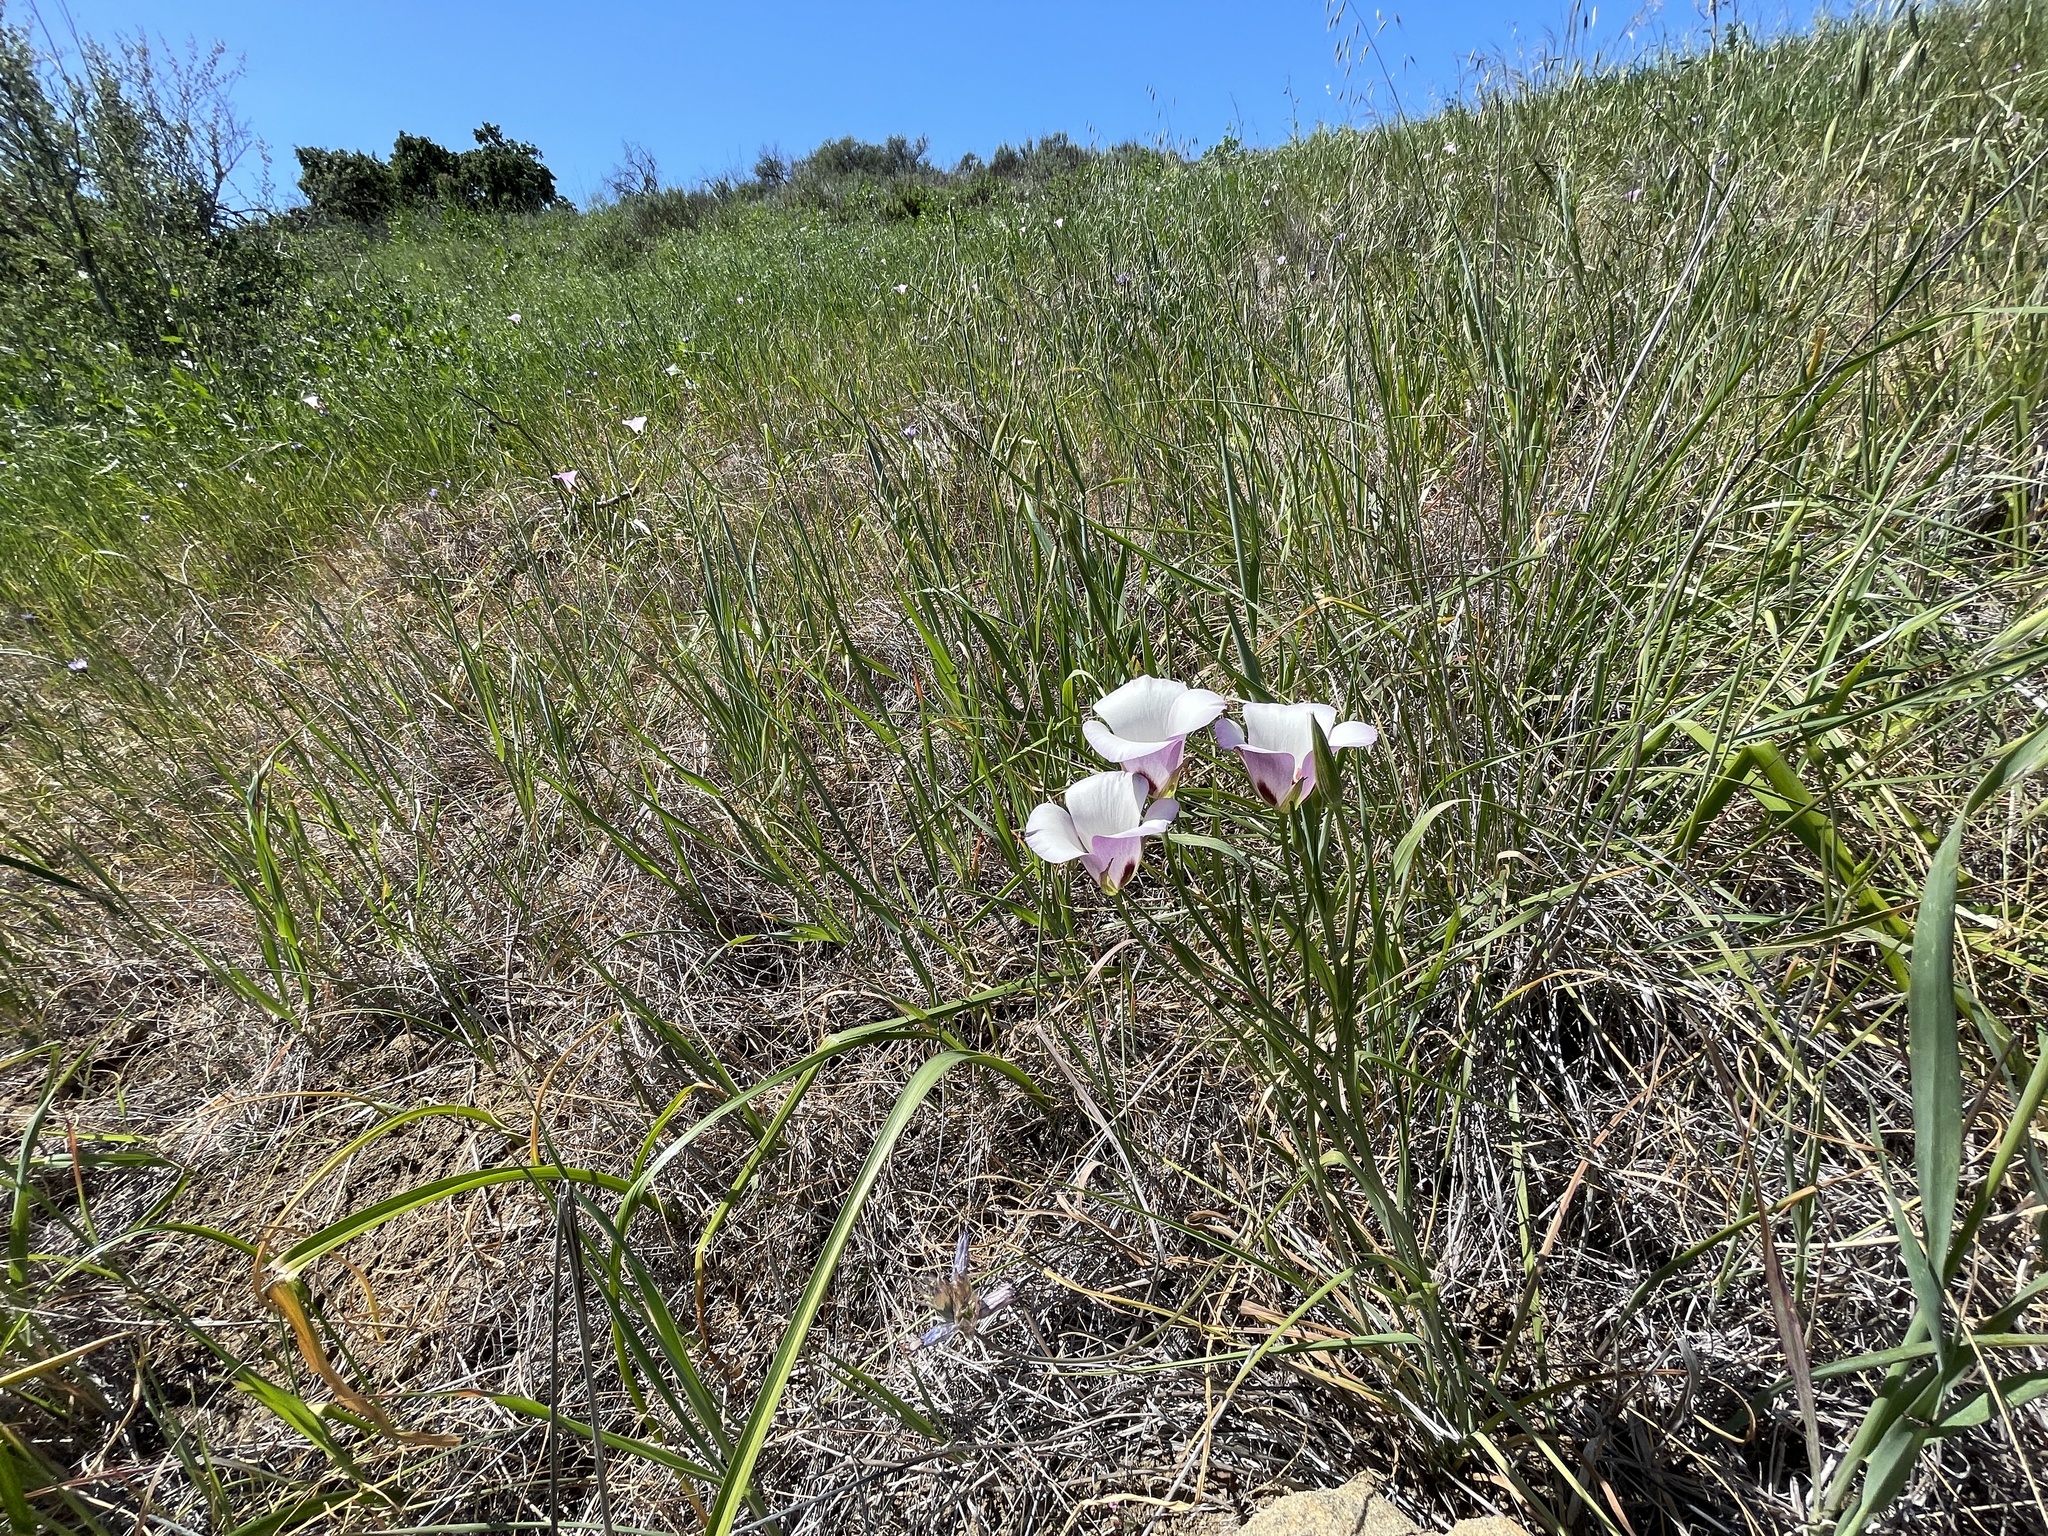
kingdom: Plantae
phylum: Tracheophyta
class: Liliopsida
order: Liliales
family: Liliaceae
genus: Calochortus
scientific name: Calochortus catalinae
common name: Catalina mariposa-lily
